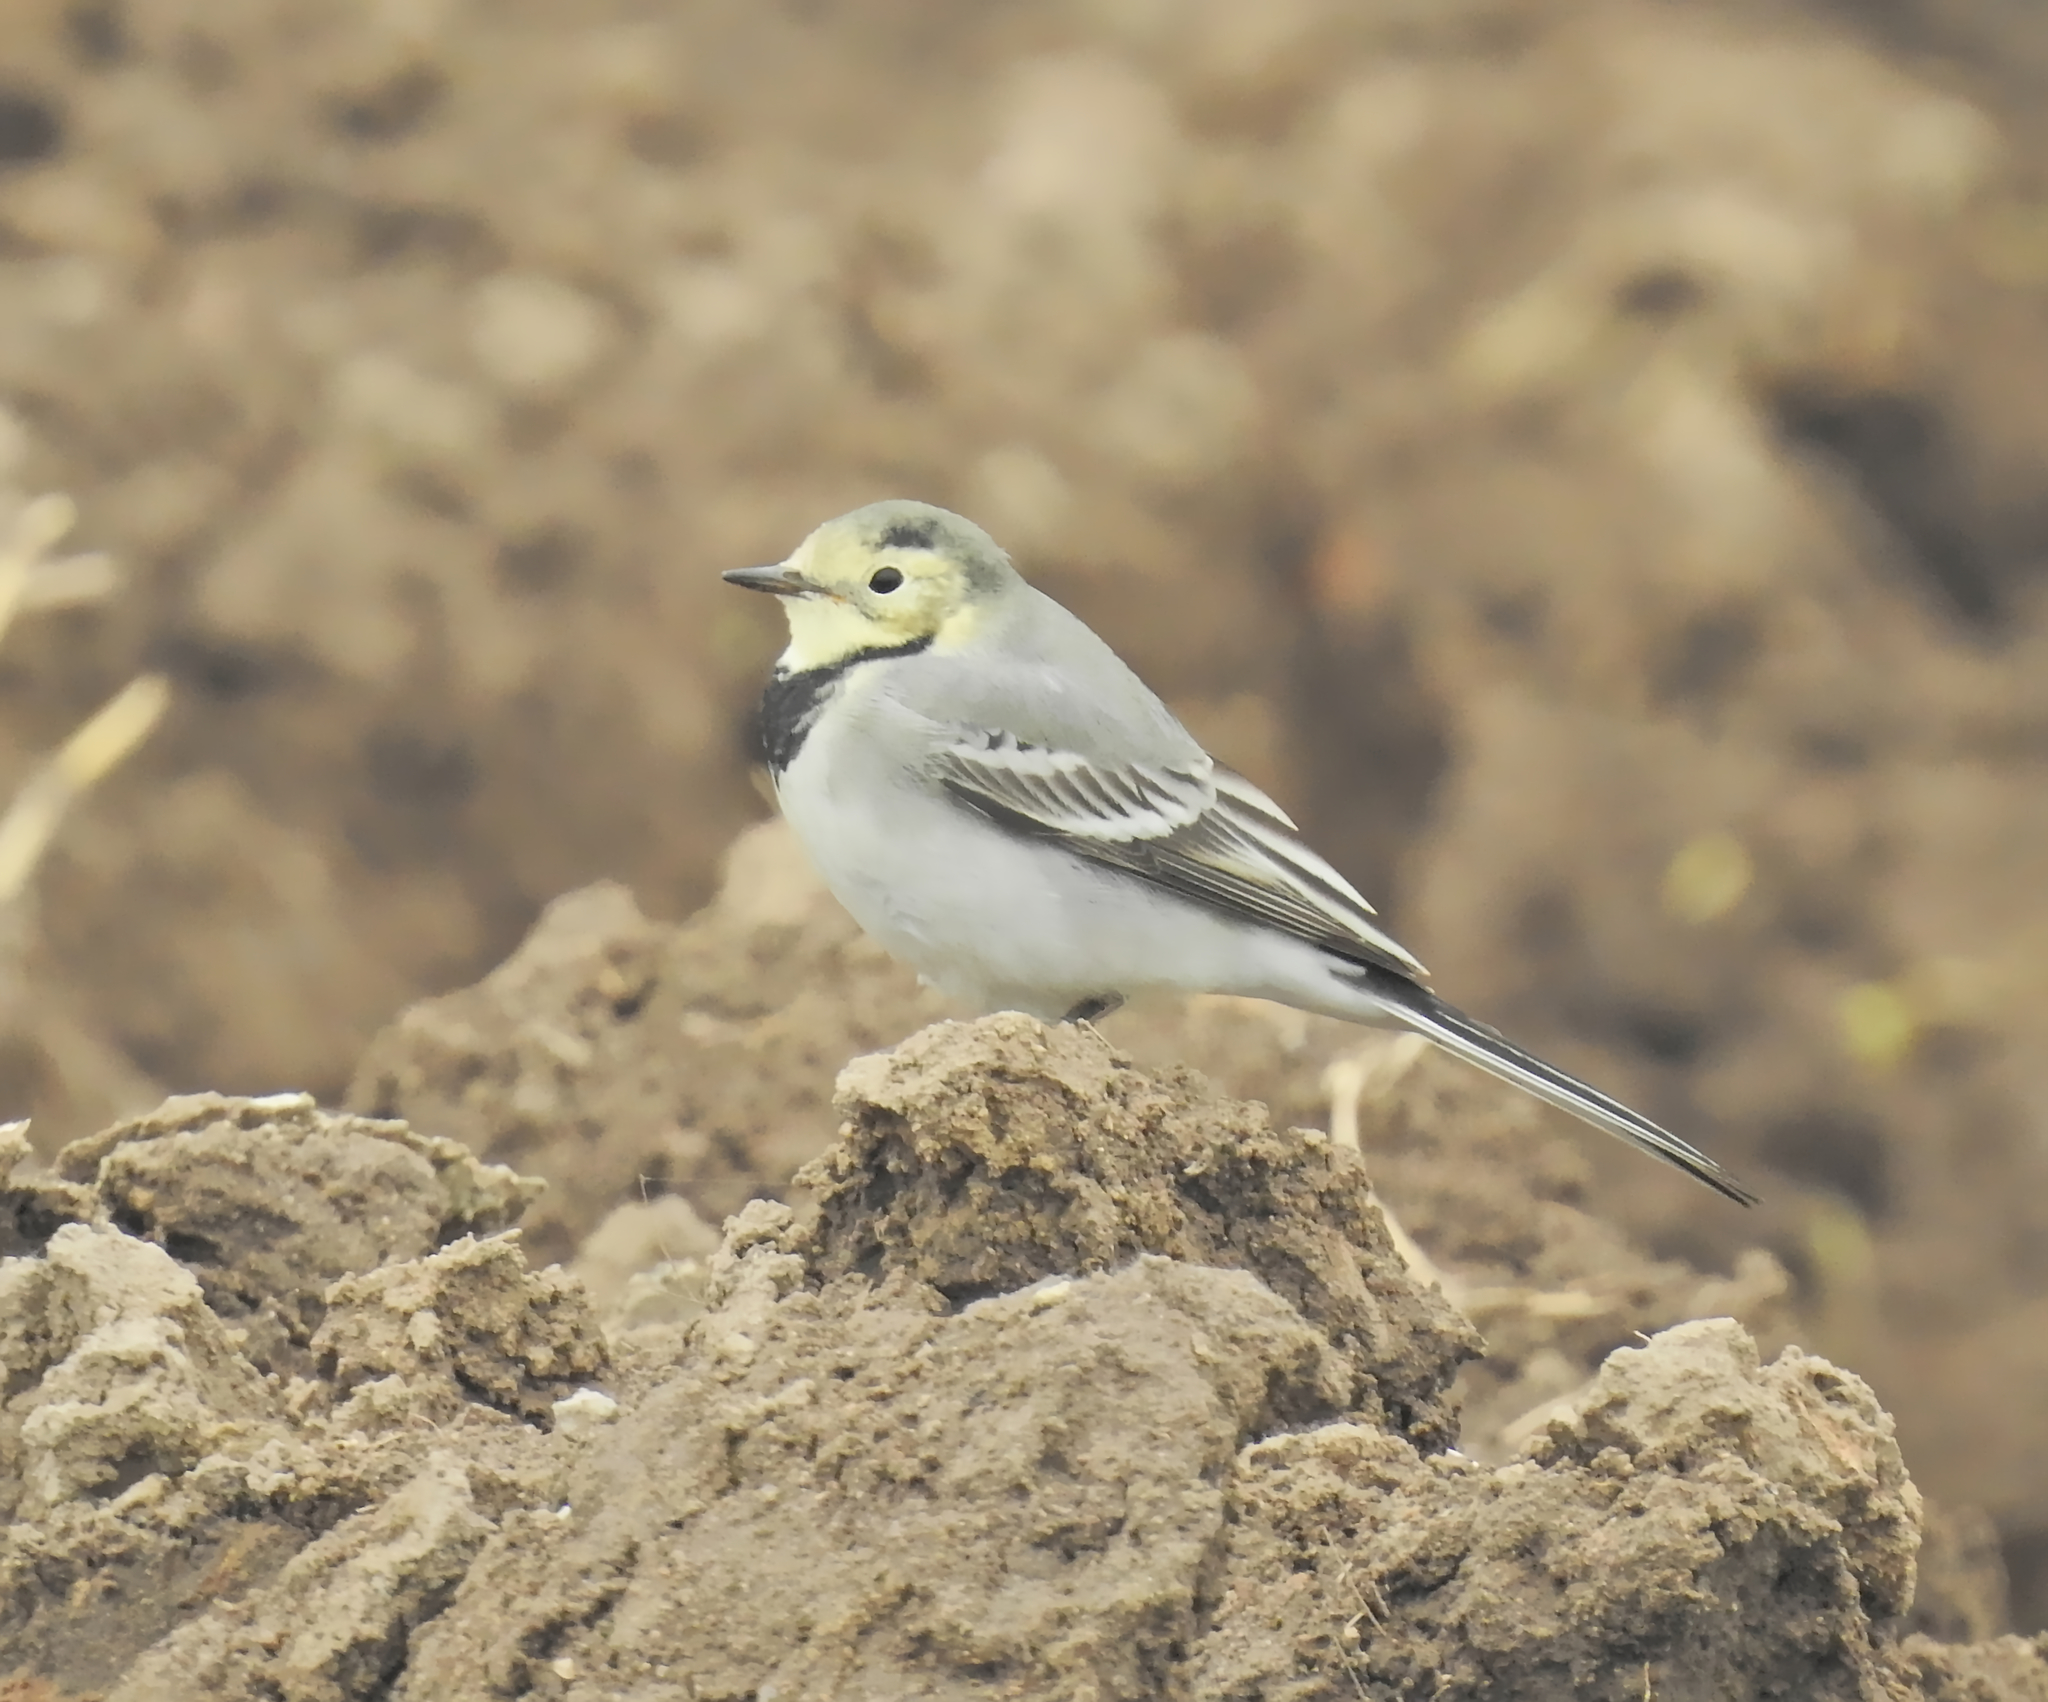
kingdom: Animalia
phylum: Chordata
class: Aves
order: Passeriformes
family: Motacillidae
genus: Motacilla
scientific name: Motacilla alba
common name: White wagtail
